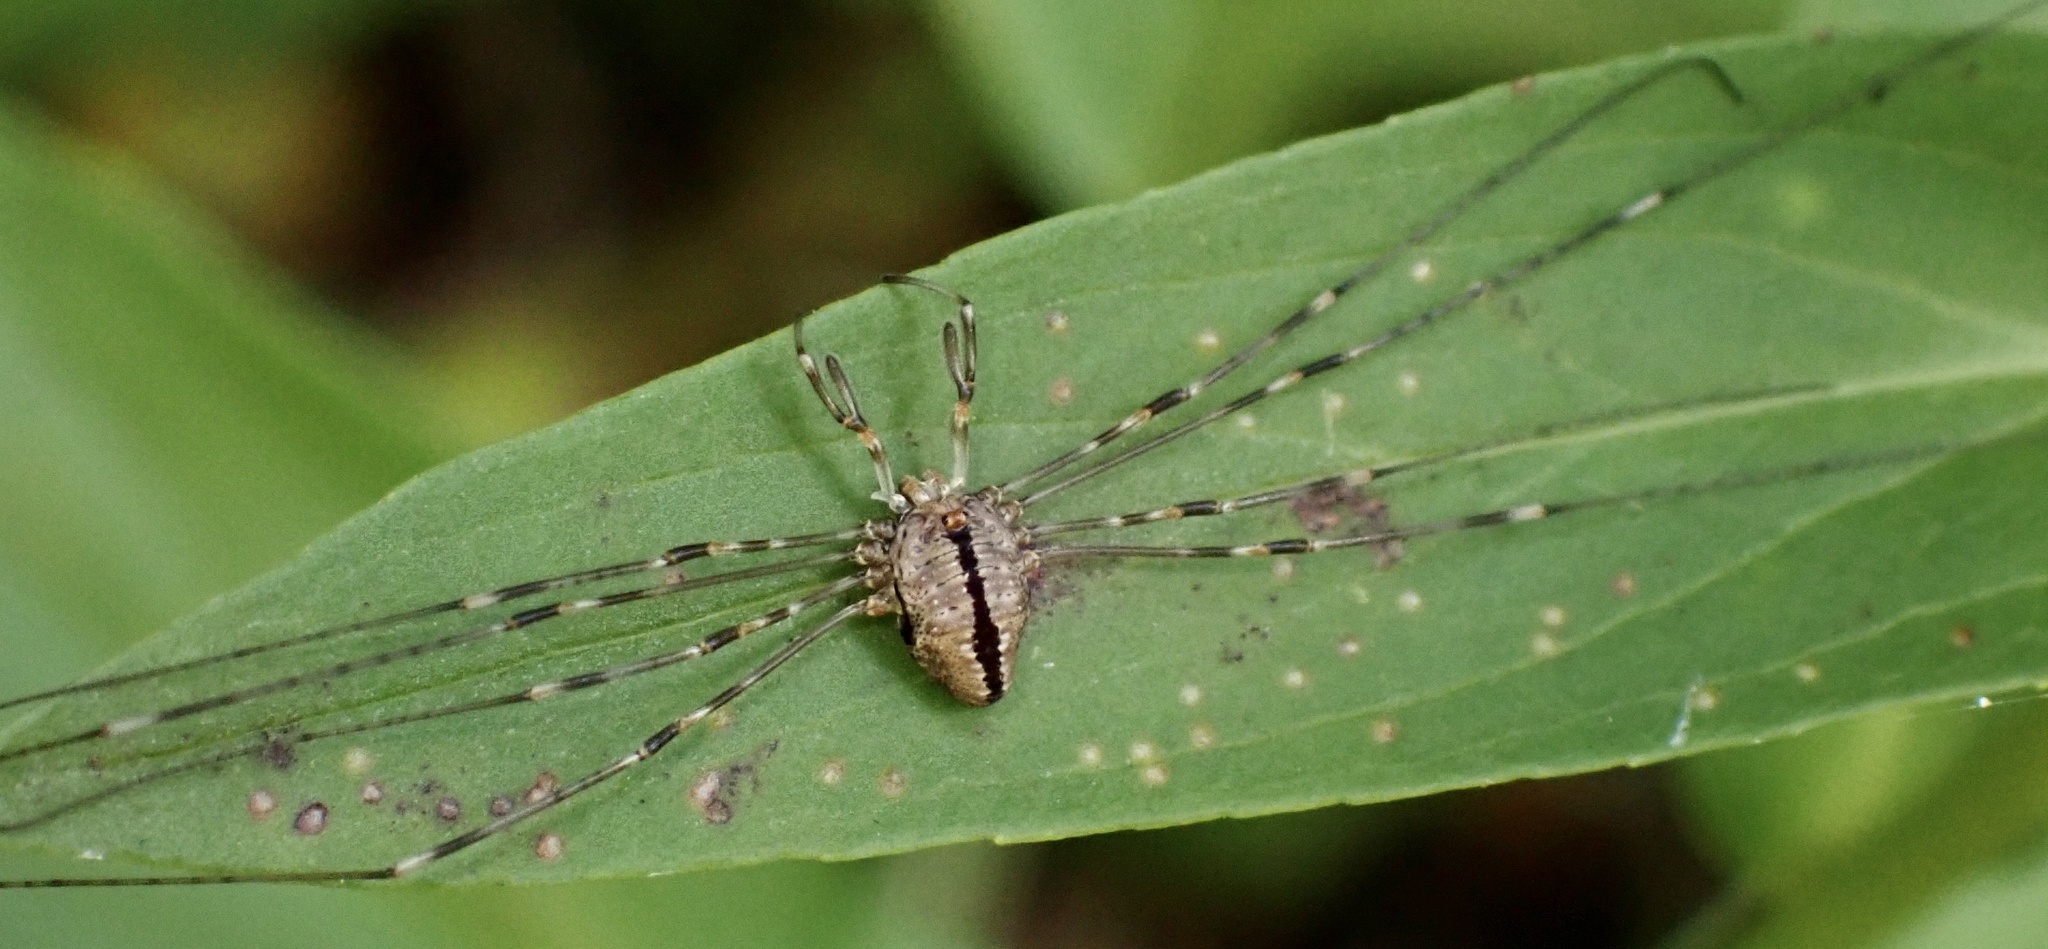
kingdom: Animalia
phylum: Arthropoda
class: Arachnida
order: Opiliones
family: Phalangiidae
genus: Dicranopalpus
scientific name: Dicranopalpus ramosus
